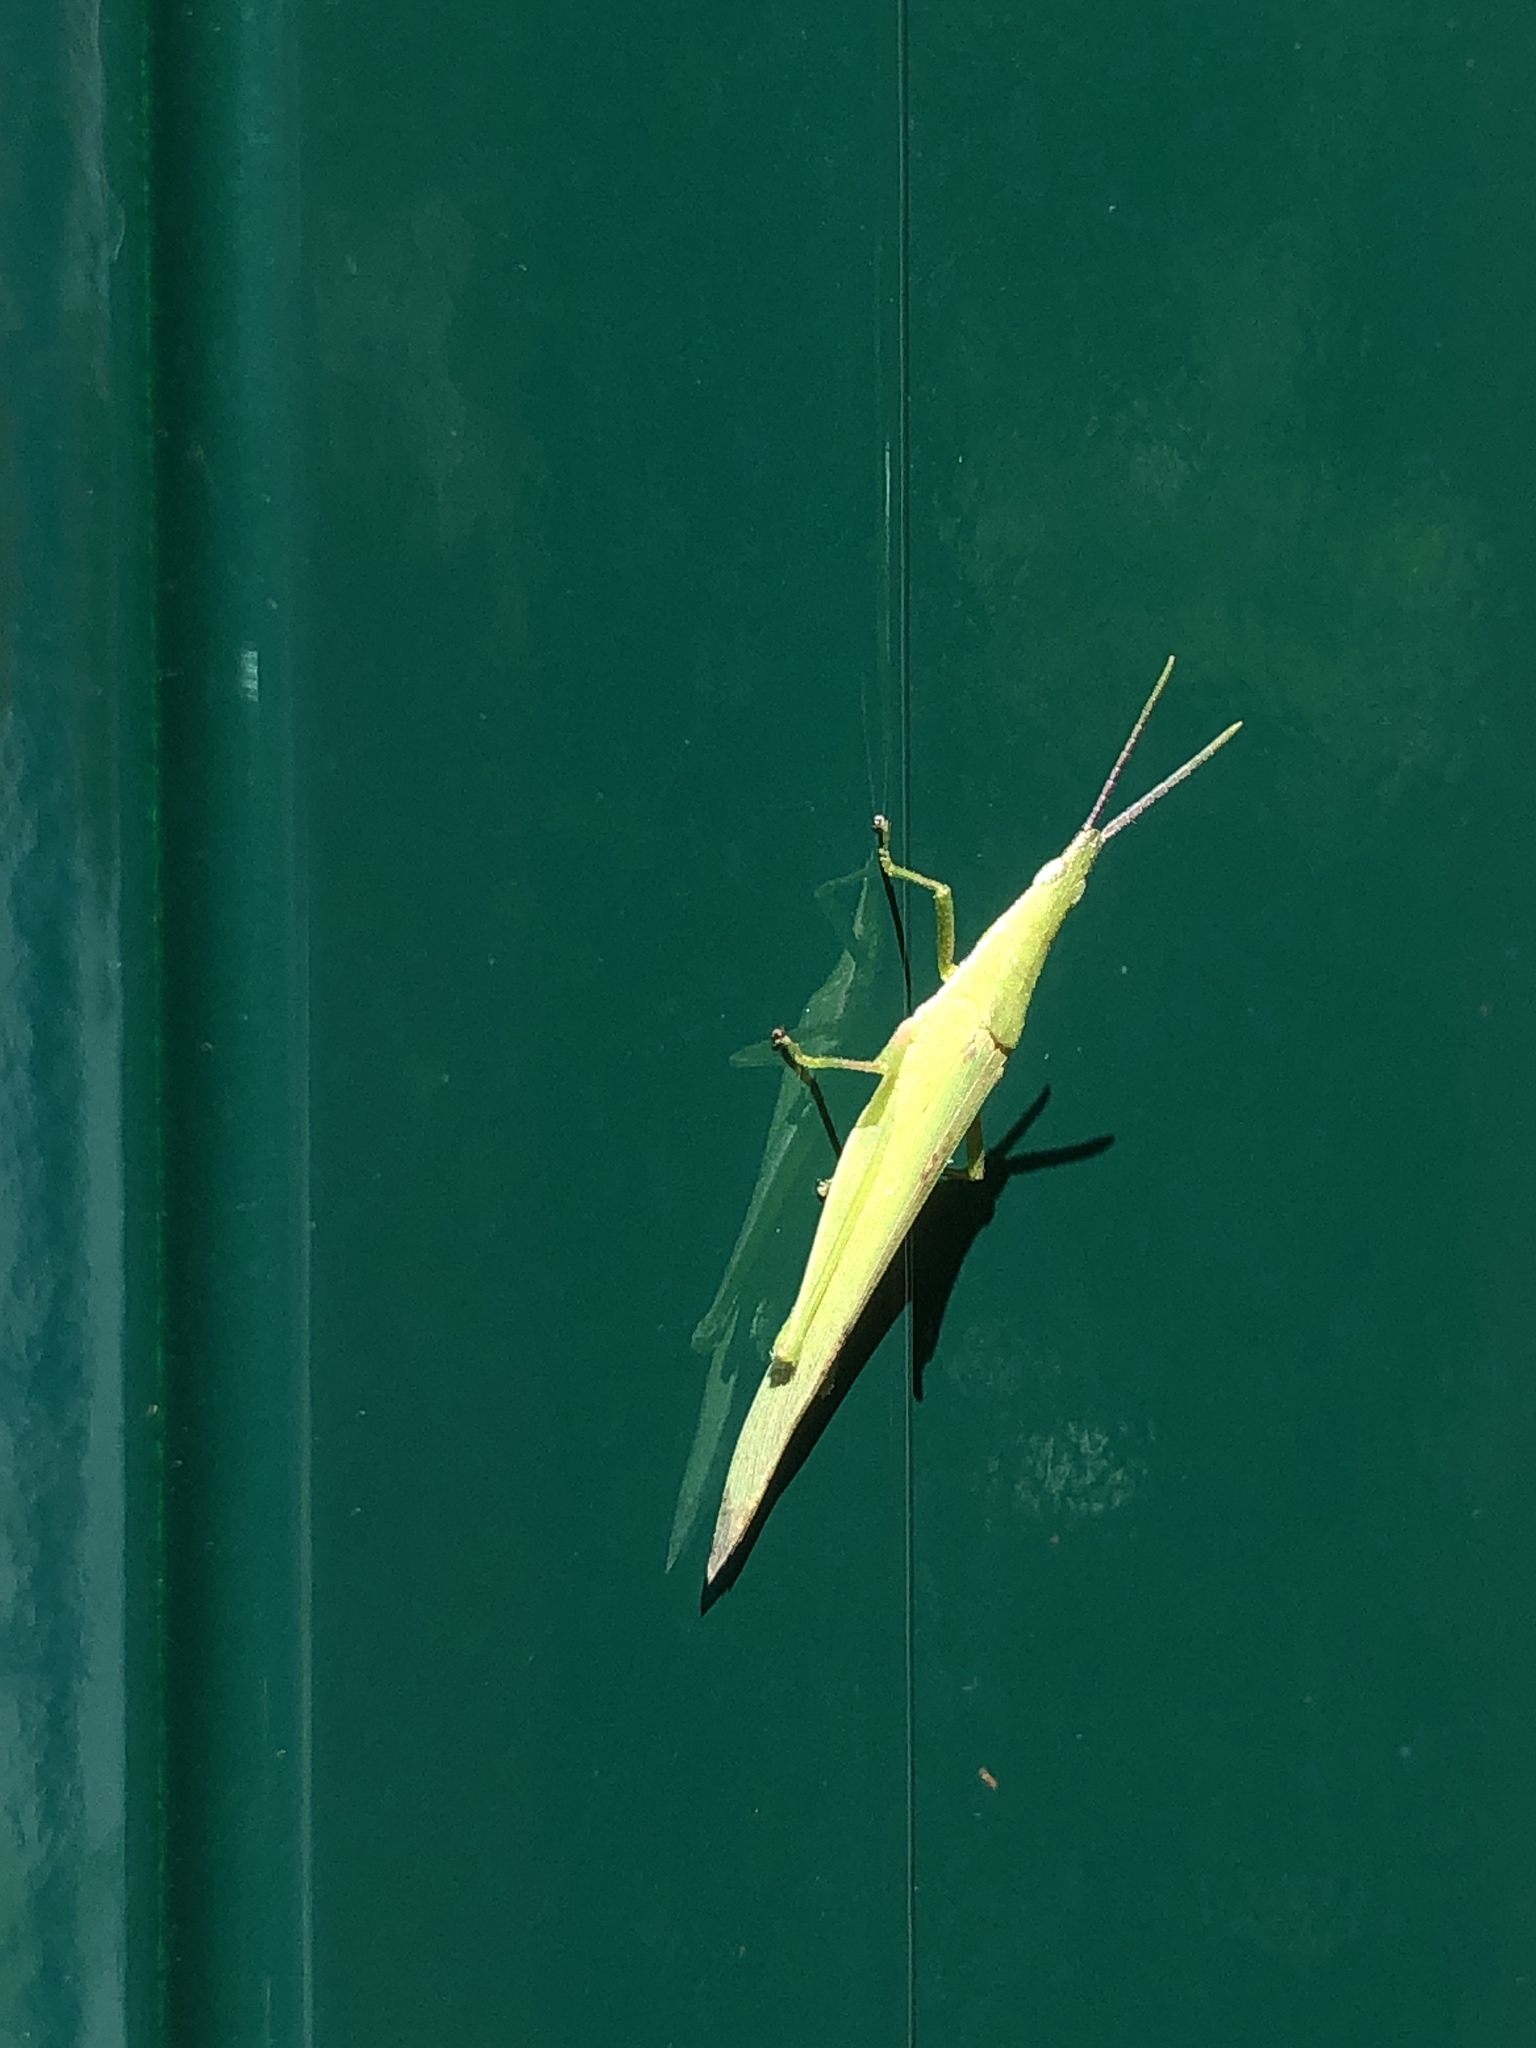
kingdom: Animalia
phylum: Arthropoda
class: Insecta
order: Orthoptera
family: Pyrgomorphidae
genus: Atractomorpha
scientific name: Atractomorpha lata
